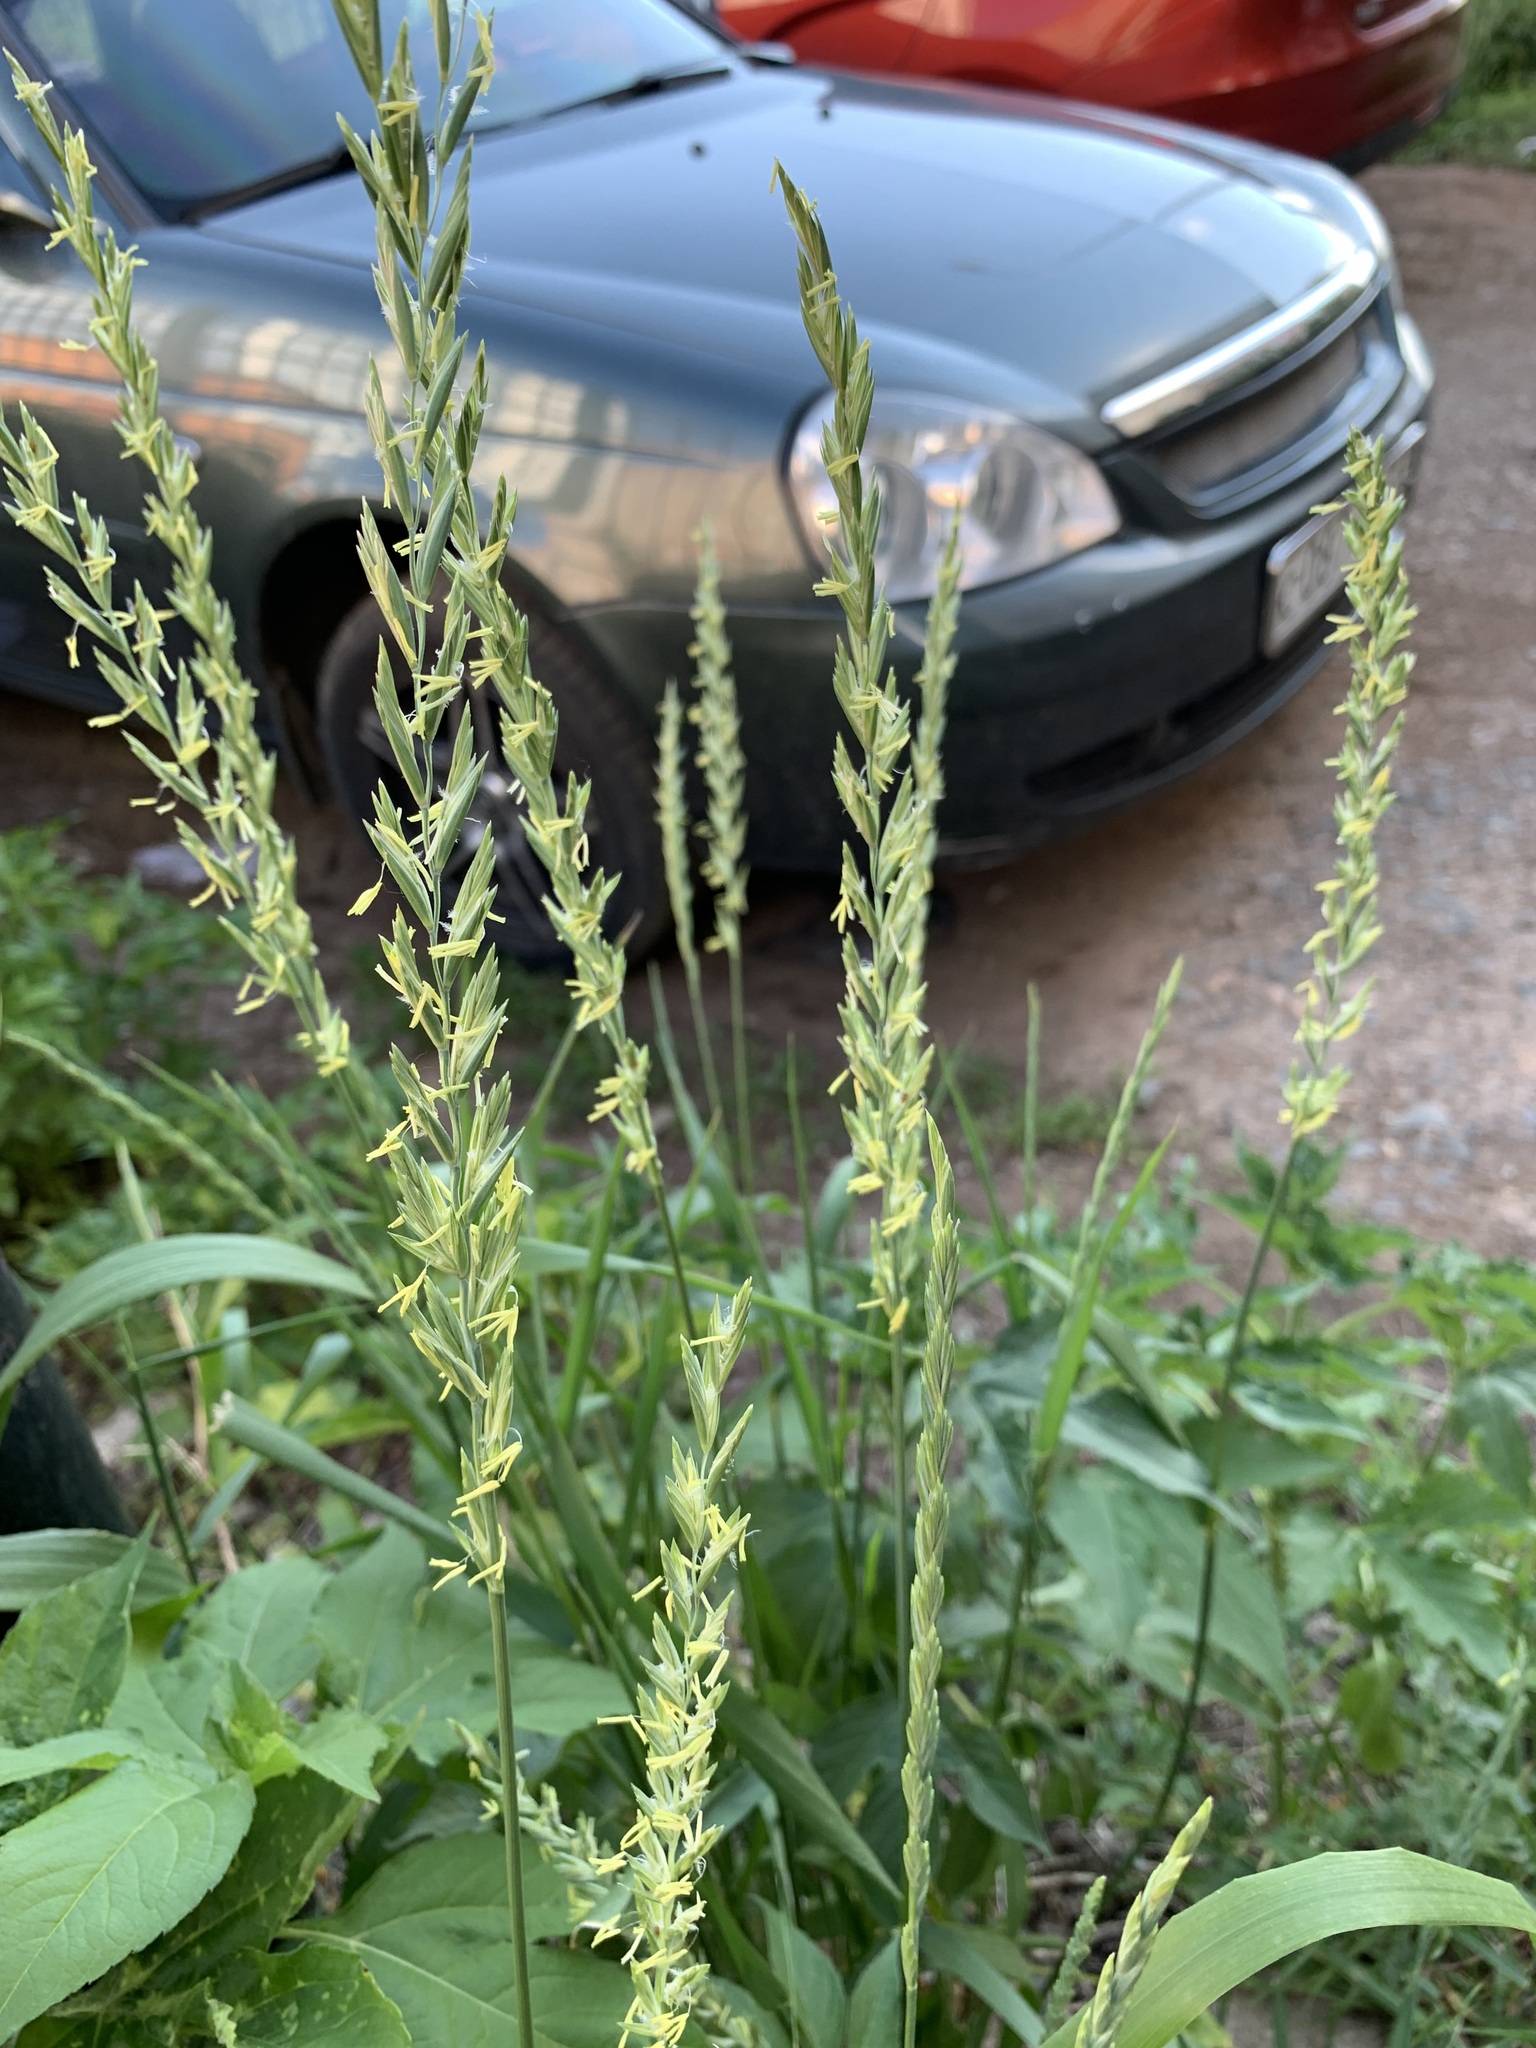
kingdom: Plantae
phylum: Tracheophyta
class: Liliopsida
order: Poales
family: Poaceae
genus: Elymus
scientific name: Elymus repens
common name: Quackgrass
